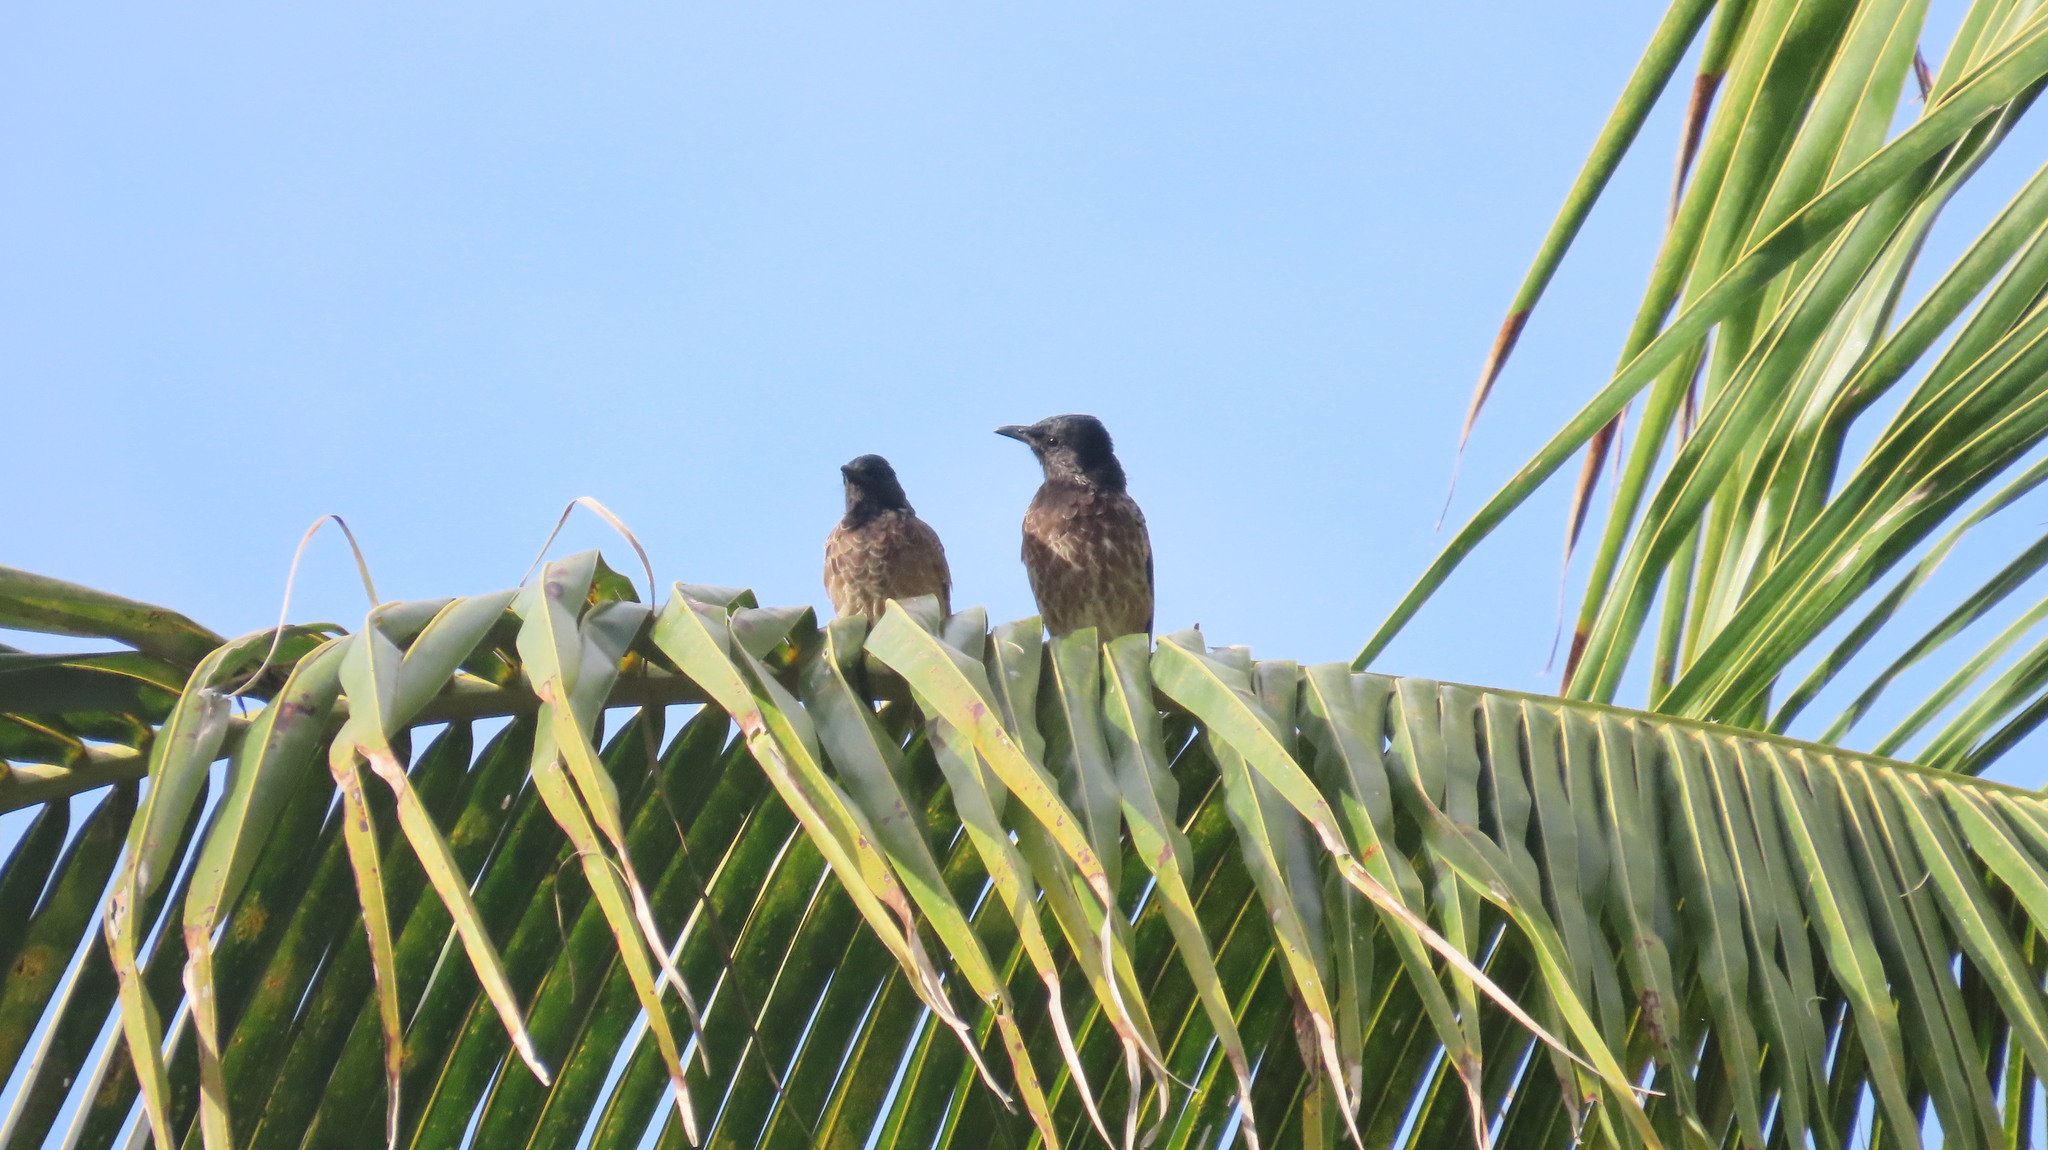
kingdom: Animalia
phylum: Chordata
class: Aves
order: Passeriformes
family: Pycnonotidae
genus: Pycnonotus
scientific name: Pycnonotus cafer
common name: Red-vented bulbul
